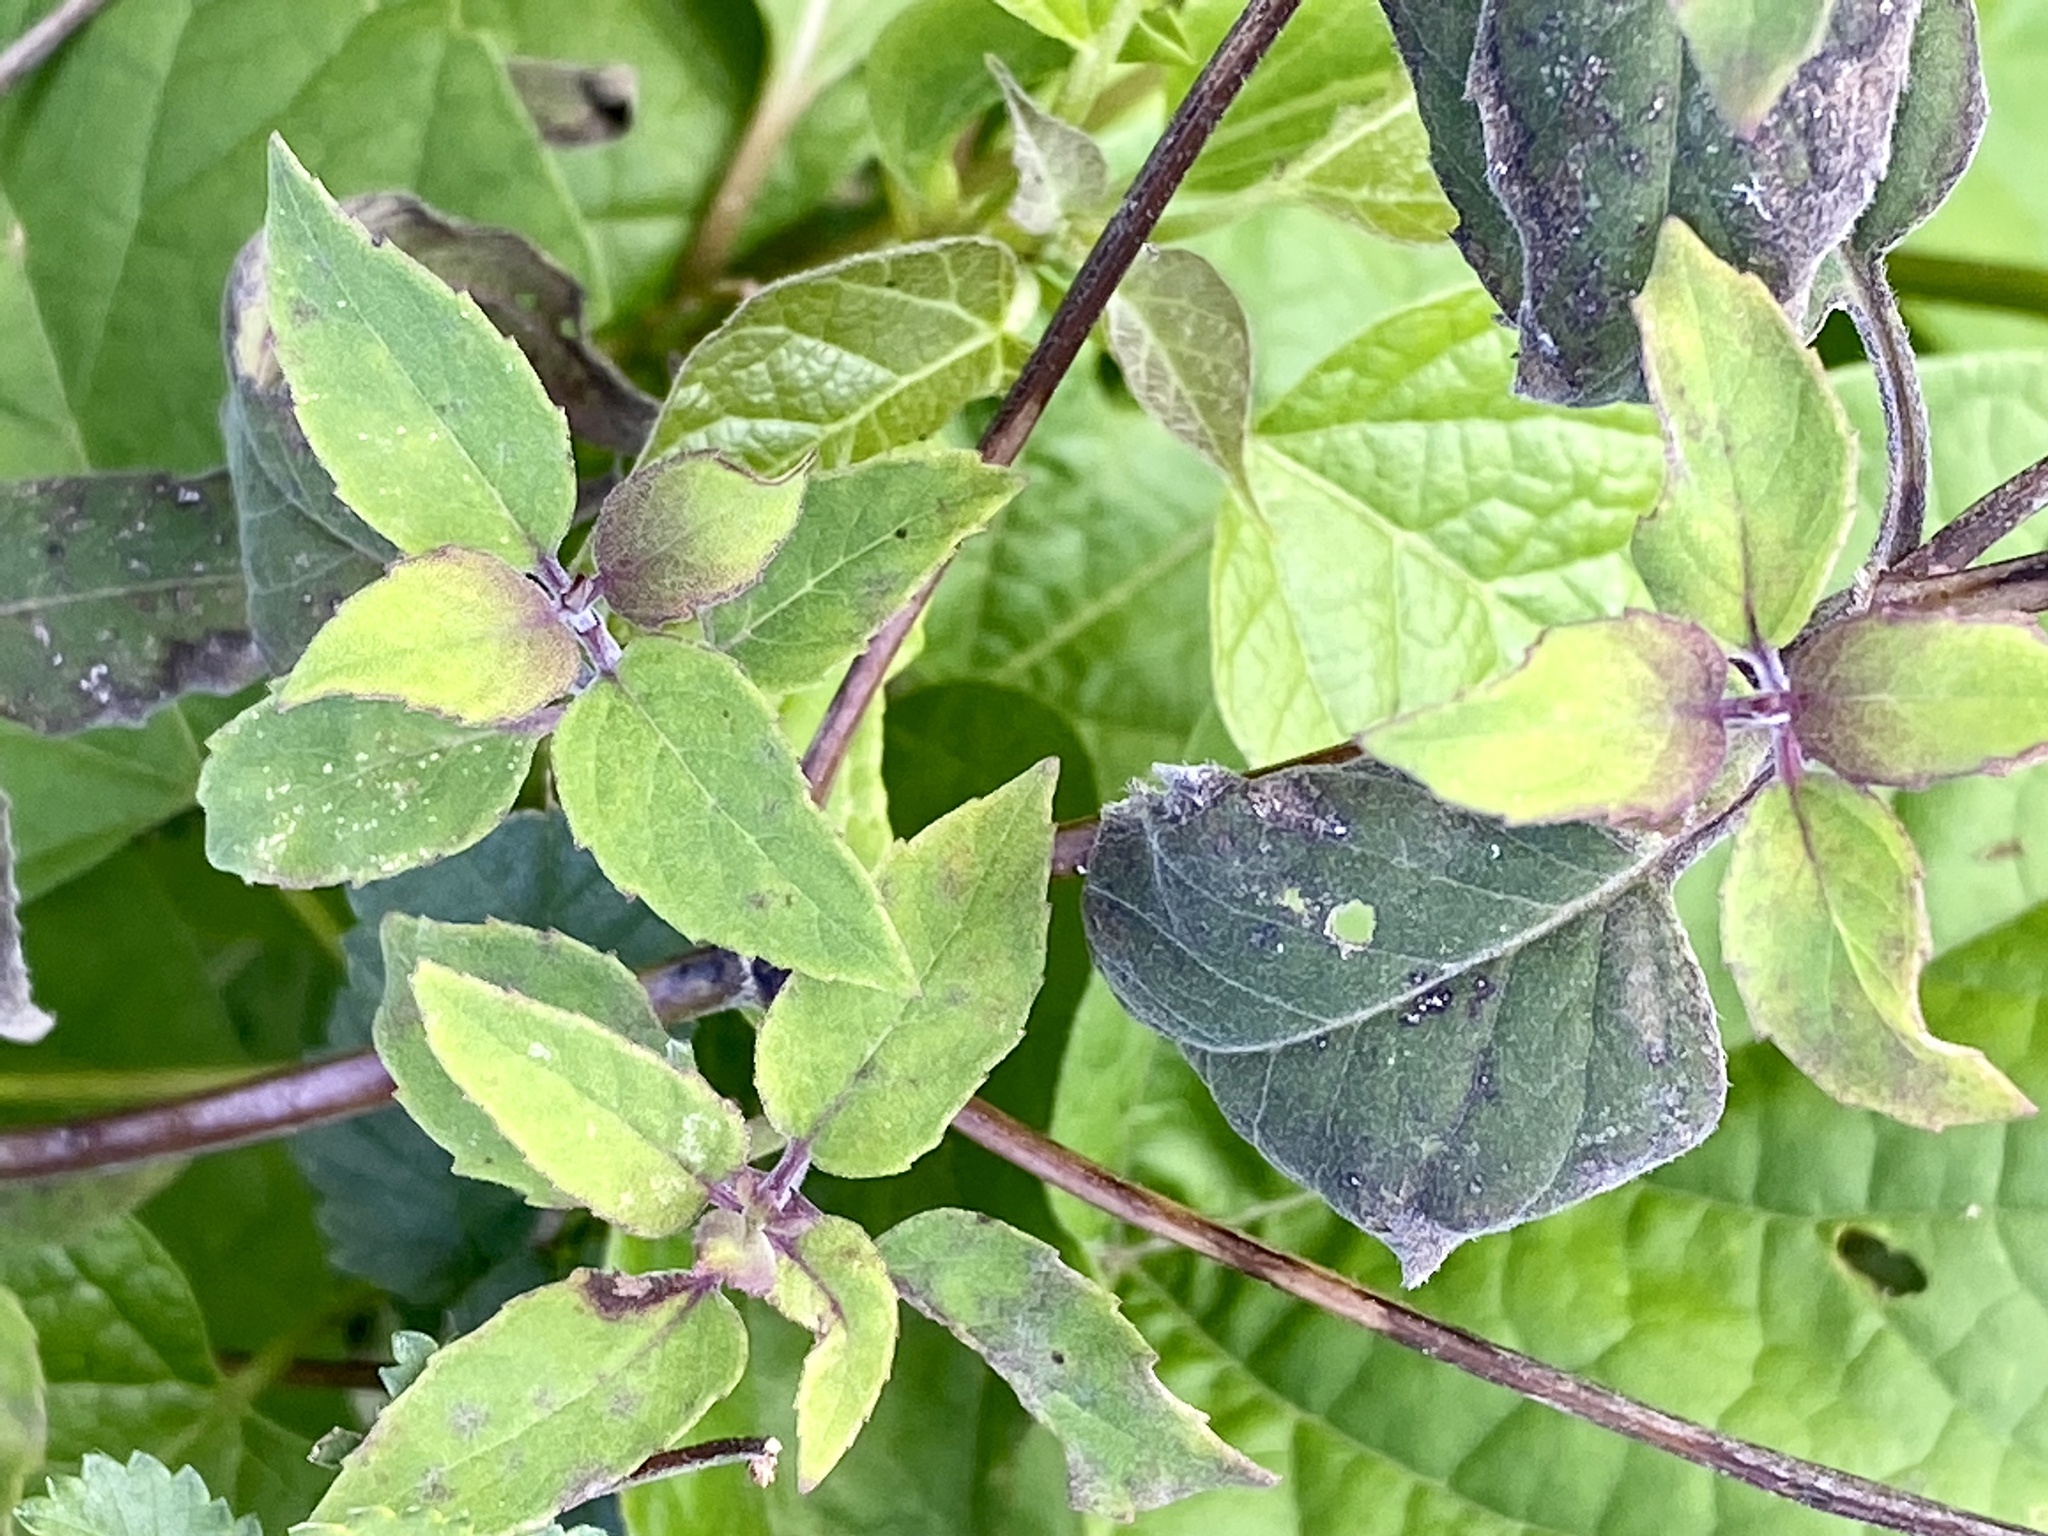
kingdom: Plantae
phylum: Tracheophyta
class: Magnoliopsida
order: Lamiales
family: Lamiaceae
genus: Monarda
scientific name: Monarda fistulosa
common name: Purple beebalm
